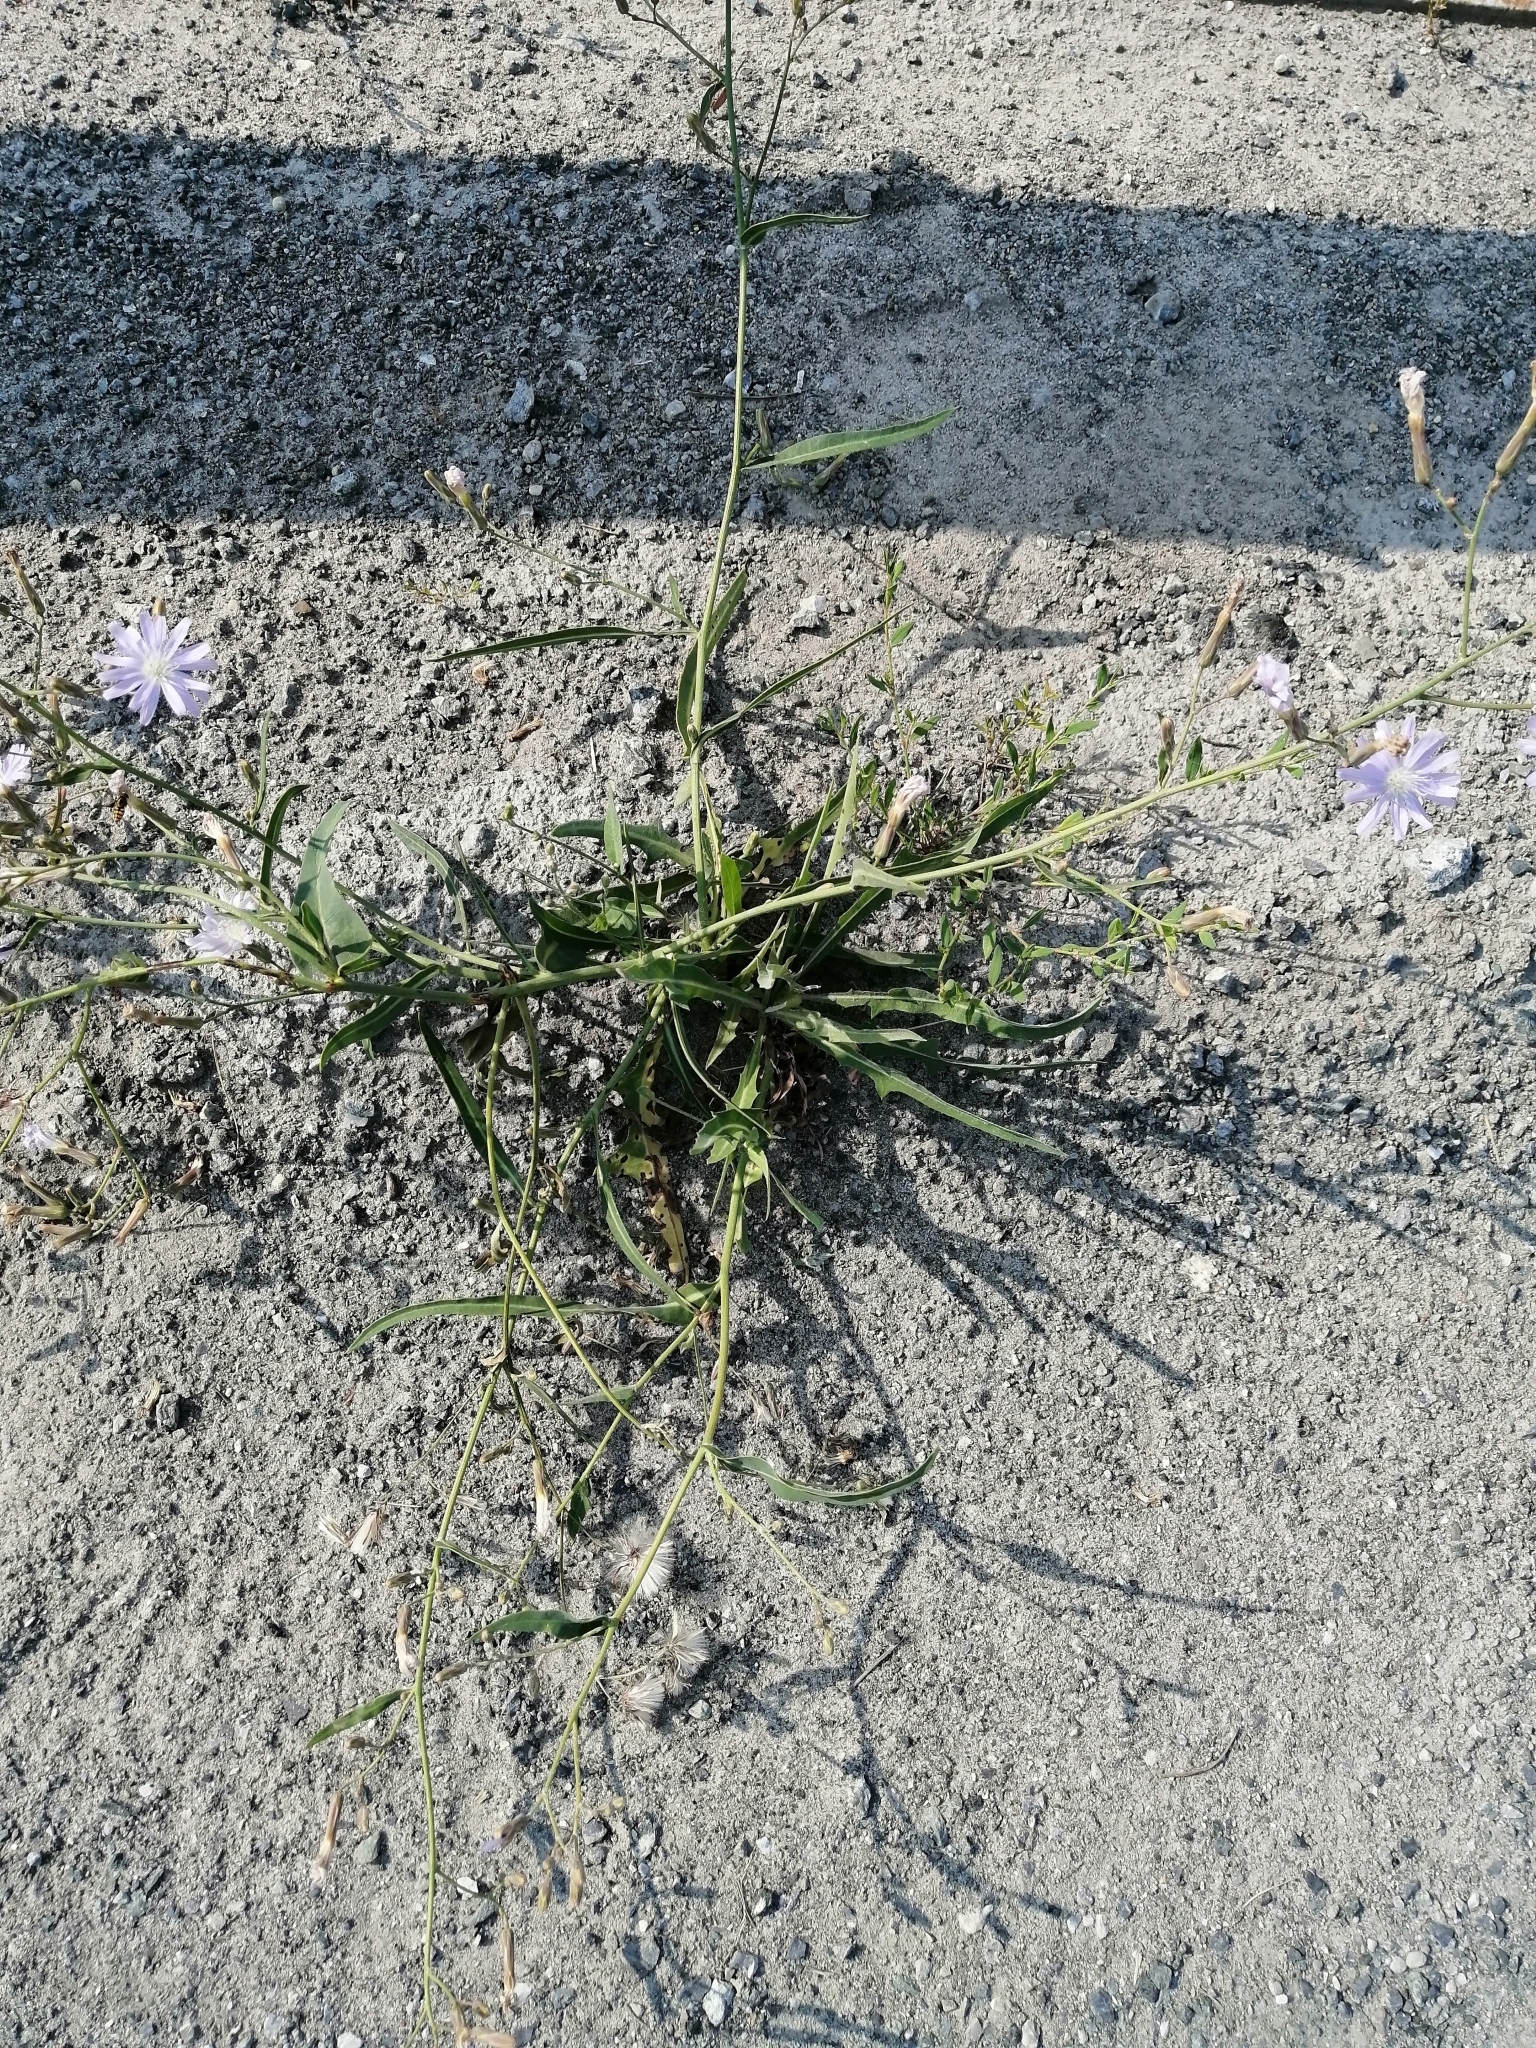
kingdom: Plantae
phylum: Tracheophyta
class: Magnoliopsida
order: Asterales
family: Asteraceae
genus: Lactuca
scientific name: Lactuca tatarica
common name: Blue lettuce
